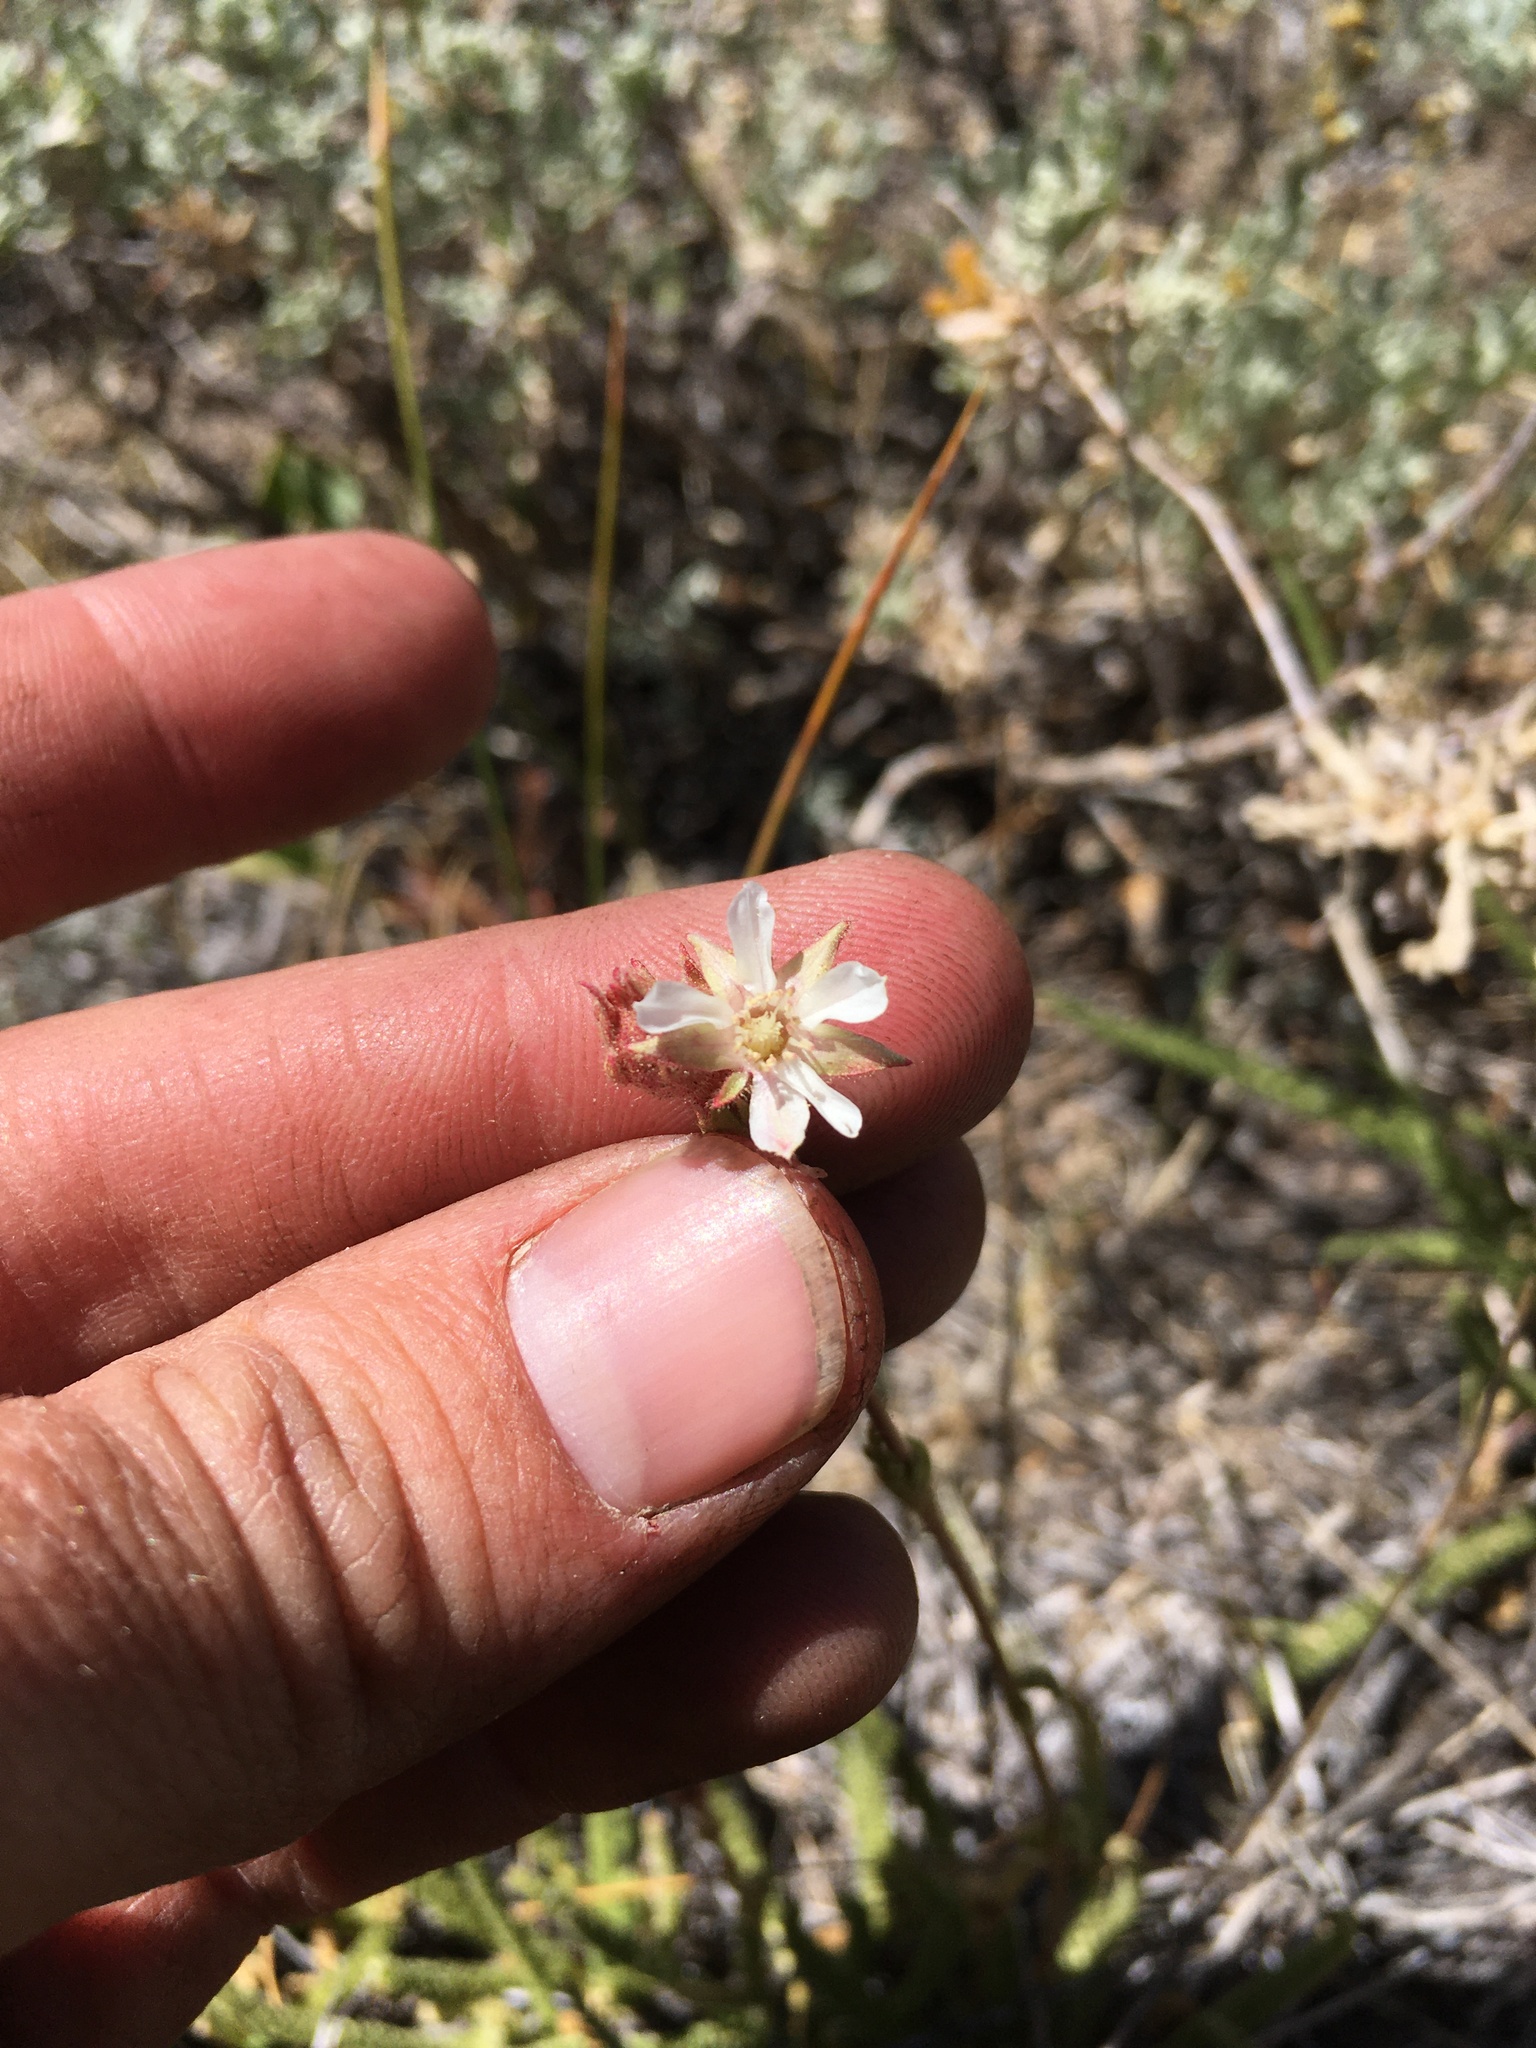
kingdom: Plantae
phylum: Tracheophyta
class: Magnoliopsida
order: Rosales
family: Rosaceae
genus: Potentilla
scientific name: Potentilla congdonis
